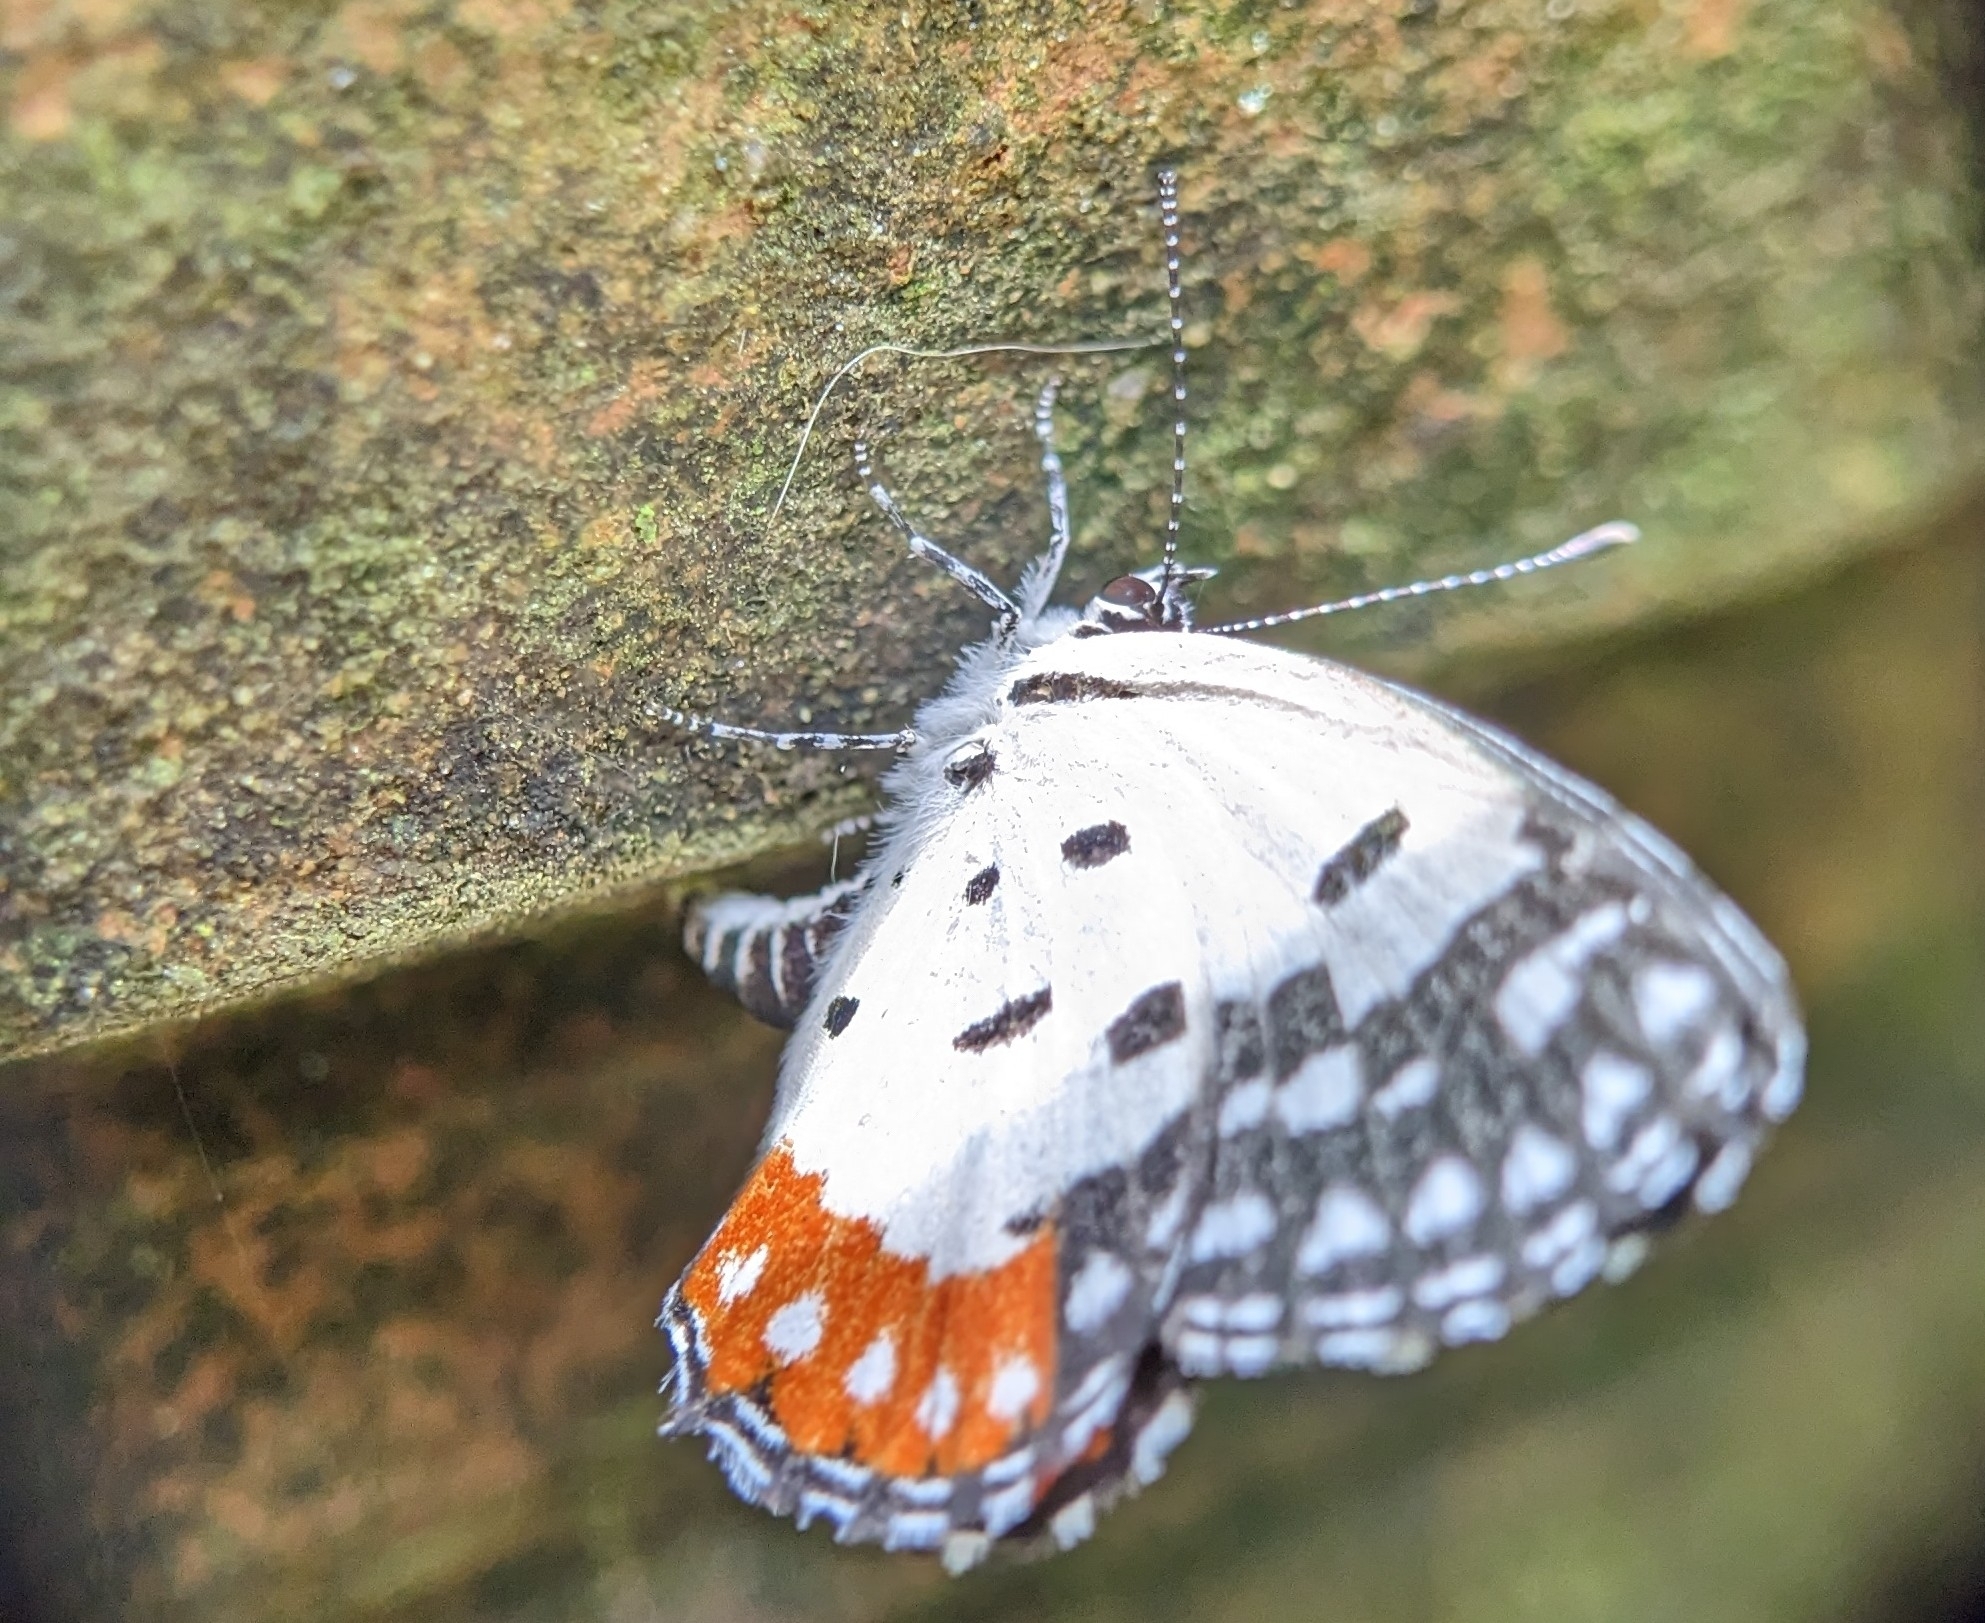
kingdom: Animalia
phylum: Arthropoda
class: Insecta
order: Lepidoptera
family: Lycaenidae
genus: Talicada
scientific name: Talicada nyseus
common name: Red pierrot
